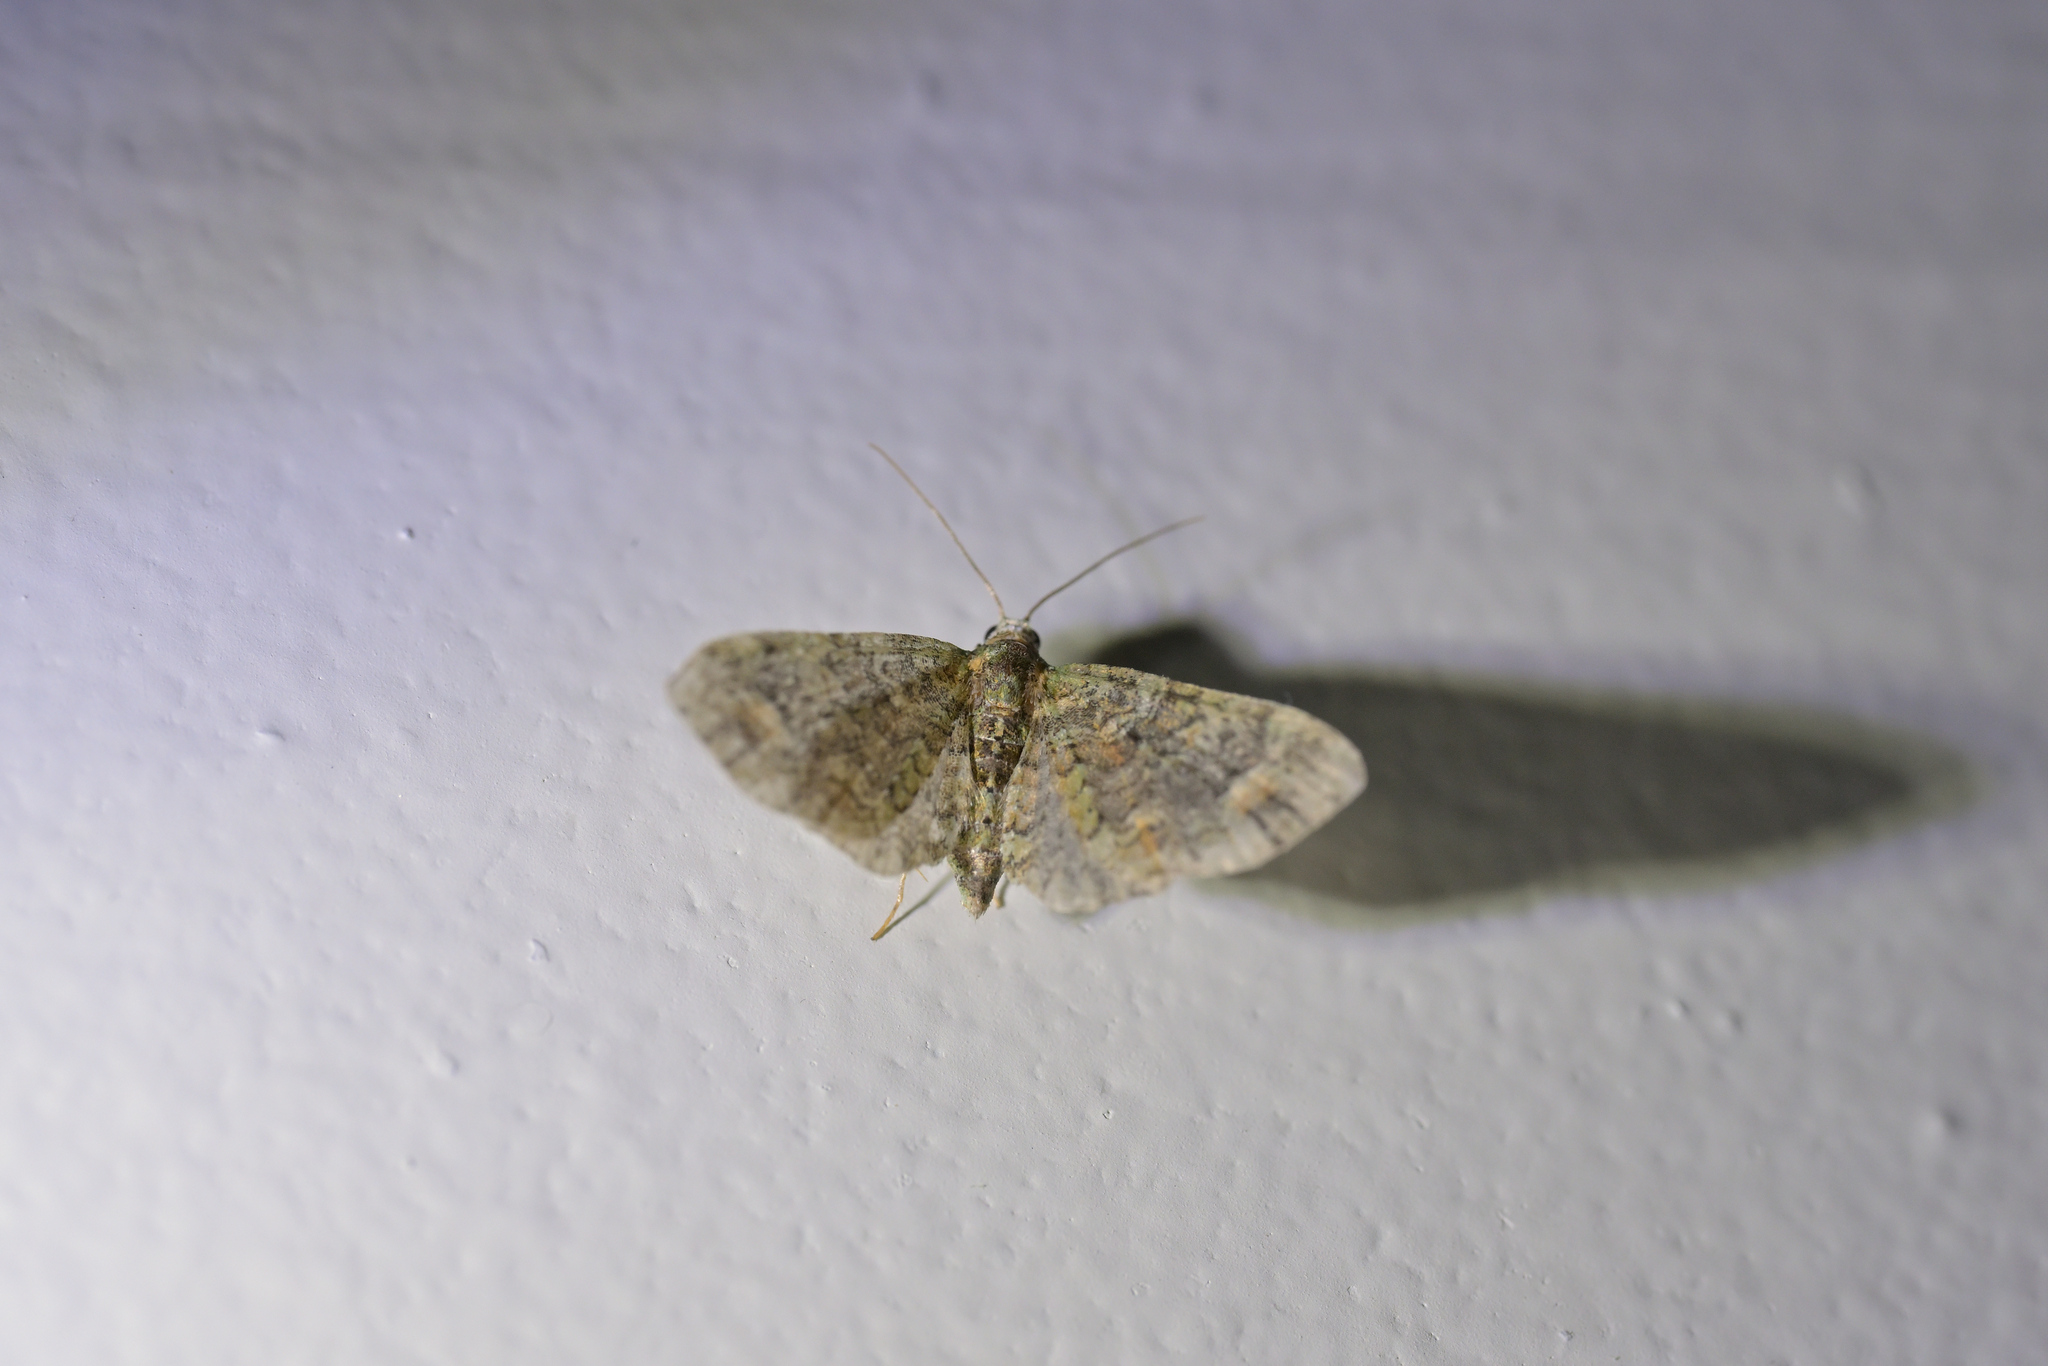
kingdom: Animalia
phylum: Arthropoda
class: Insecta
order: Lepidoptera
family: Geometridae
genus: Idaea
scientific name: Idaea mutanda
